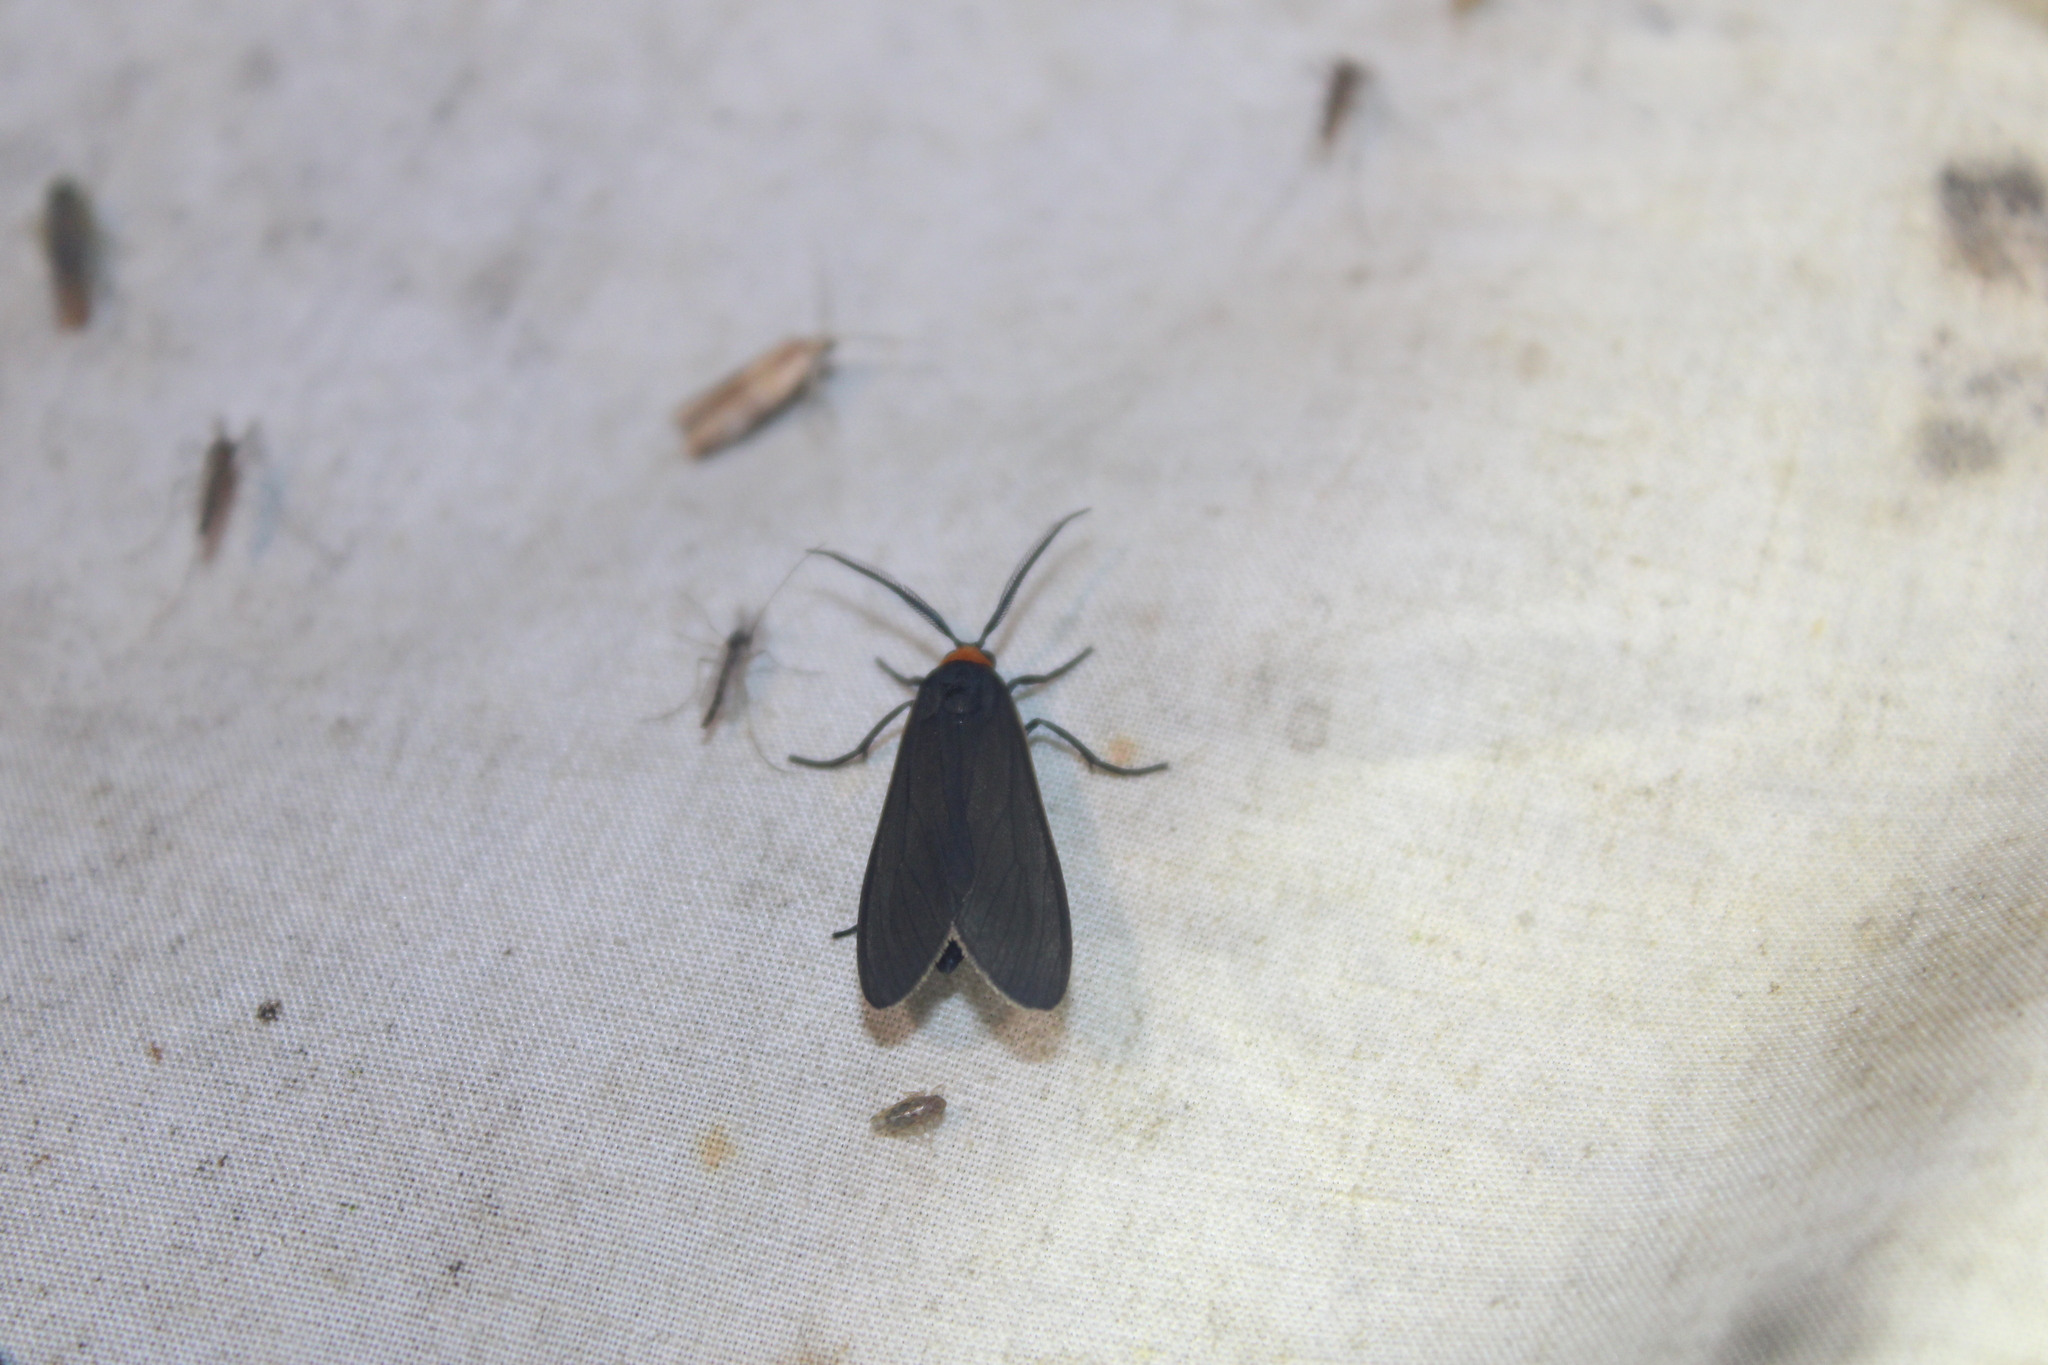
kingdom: Animalia
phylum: Arthropoda
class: Insecta
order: Lepidoptera
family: Erebidae
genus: Cisseps
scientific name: Cisseps fulvicollis
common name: Yellow-collared scape moth
